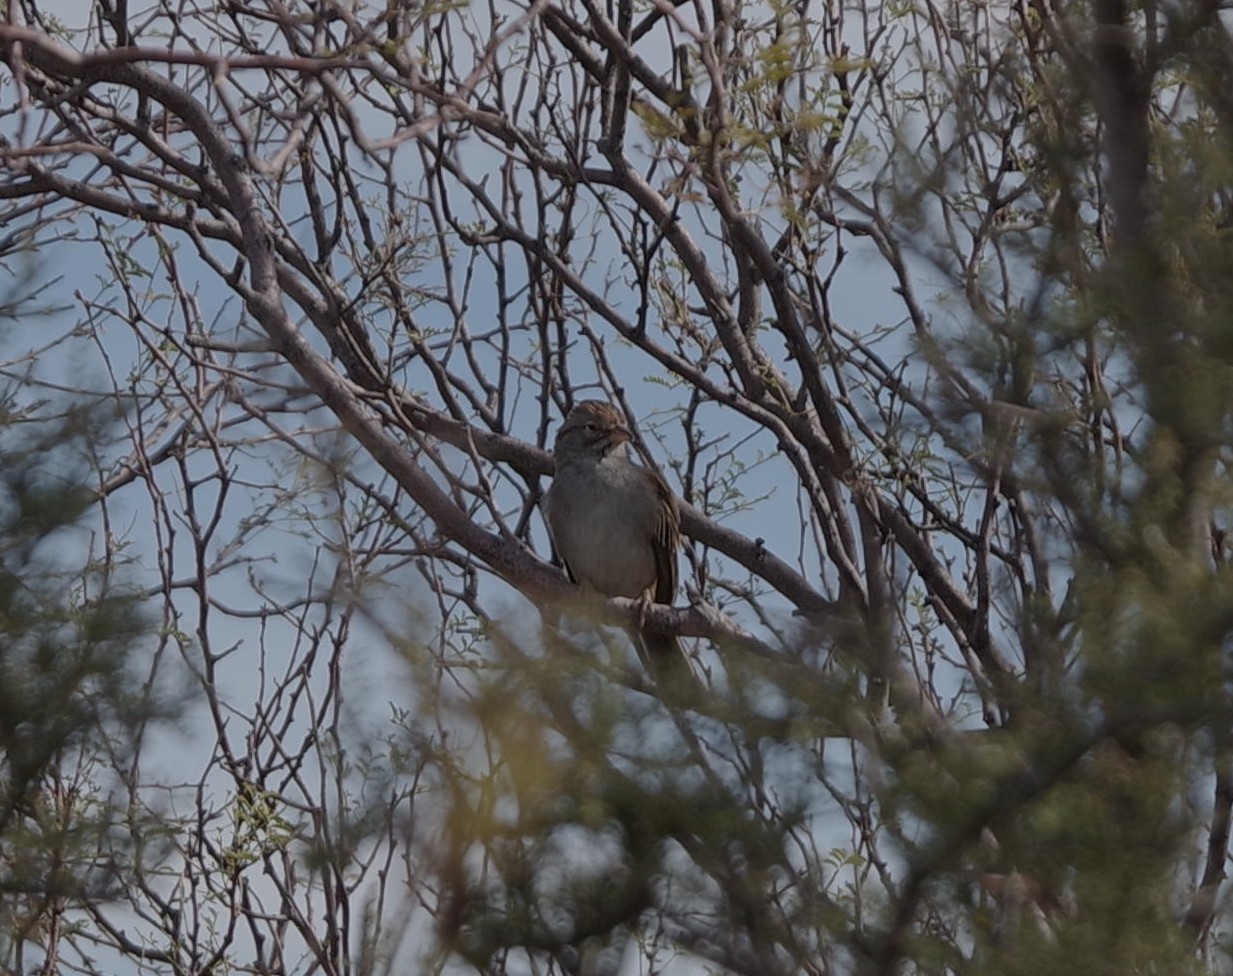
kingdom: Animalia
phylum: Chordata
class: Aves
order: Passeriformes
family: Passerellidae
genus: Peucaea
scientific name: Peucaea carpalis
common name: Rufous-winged sparrow
